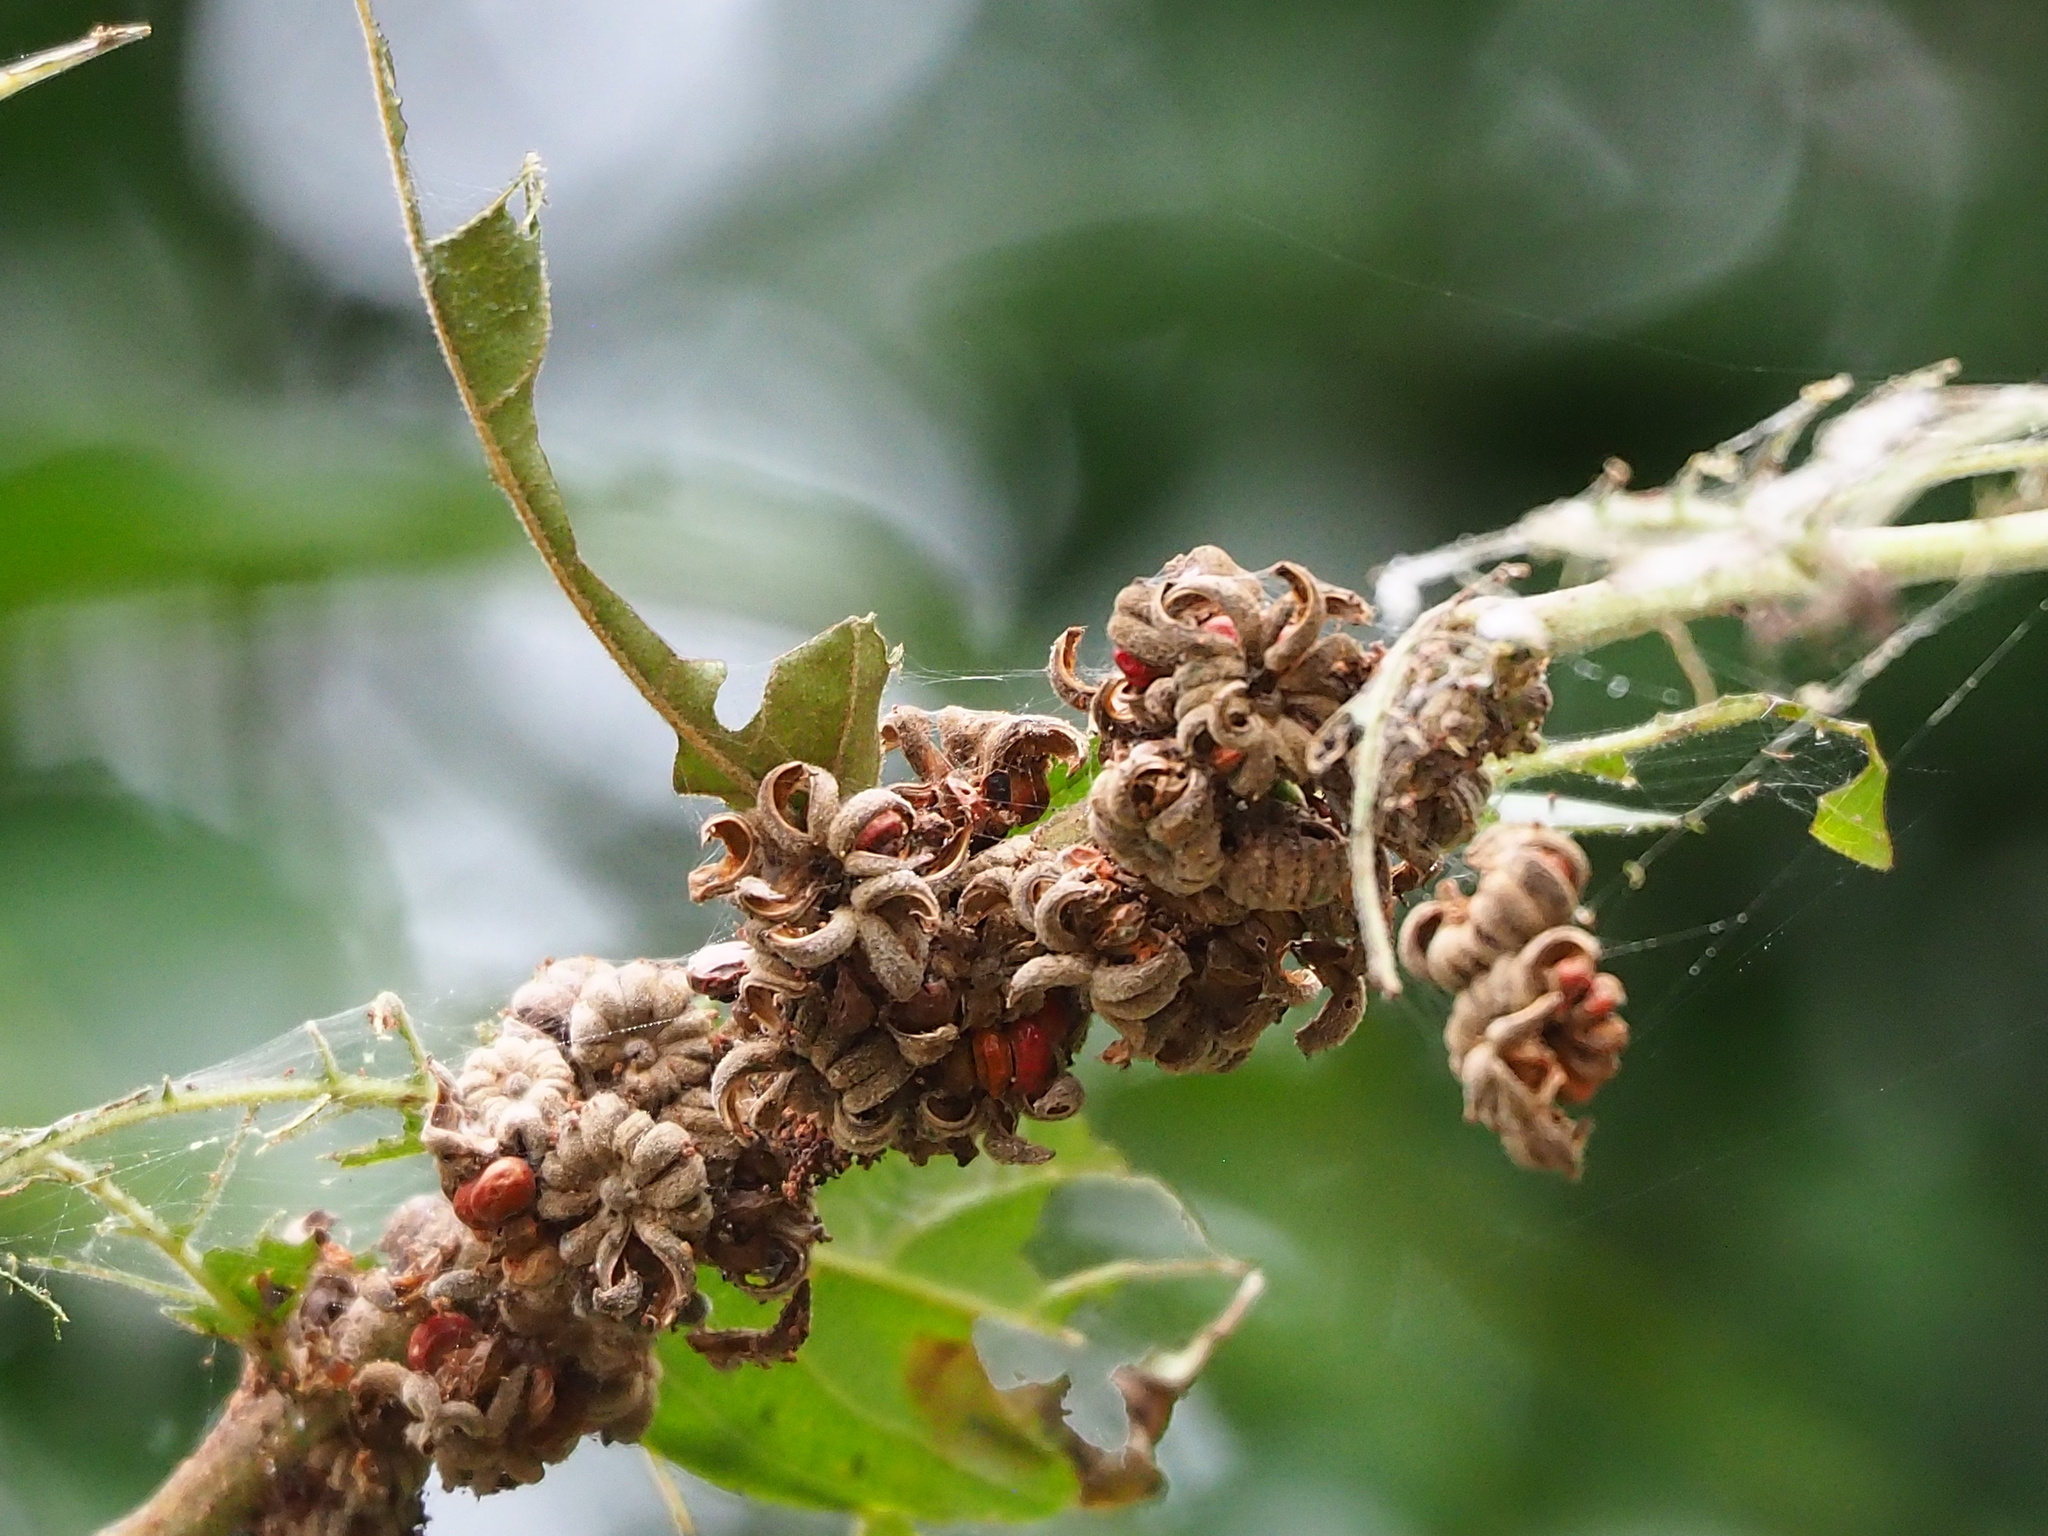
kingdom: Plantae
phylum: Tracheophyta
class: Magnoliopsida
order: Malpighiales
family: Phyllanthaceae
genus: Glochidion
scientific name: Glochidion philippicum
